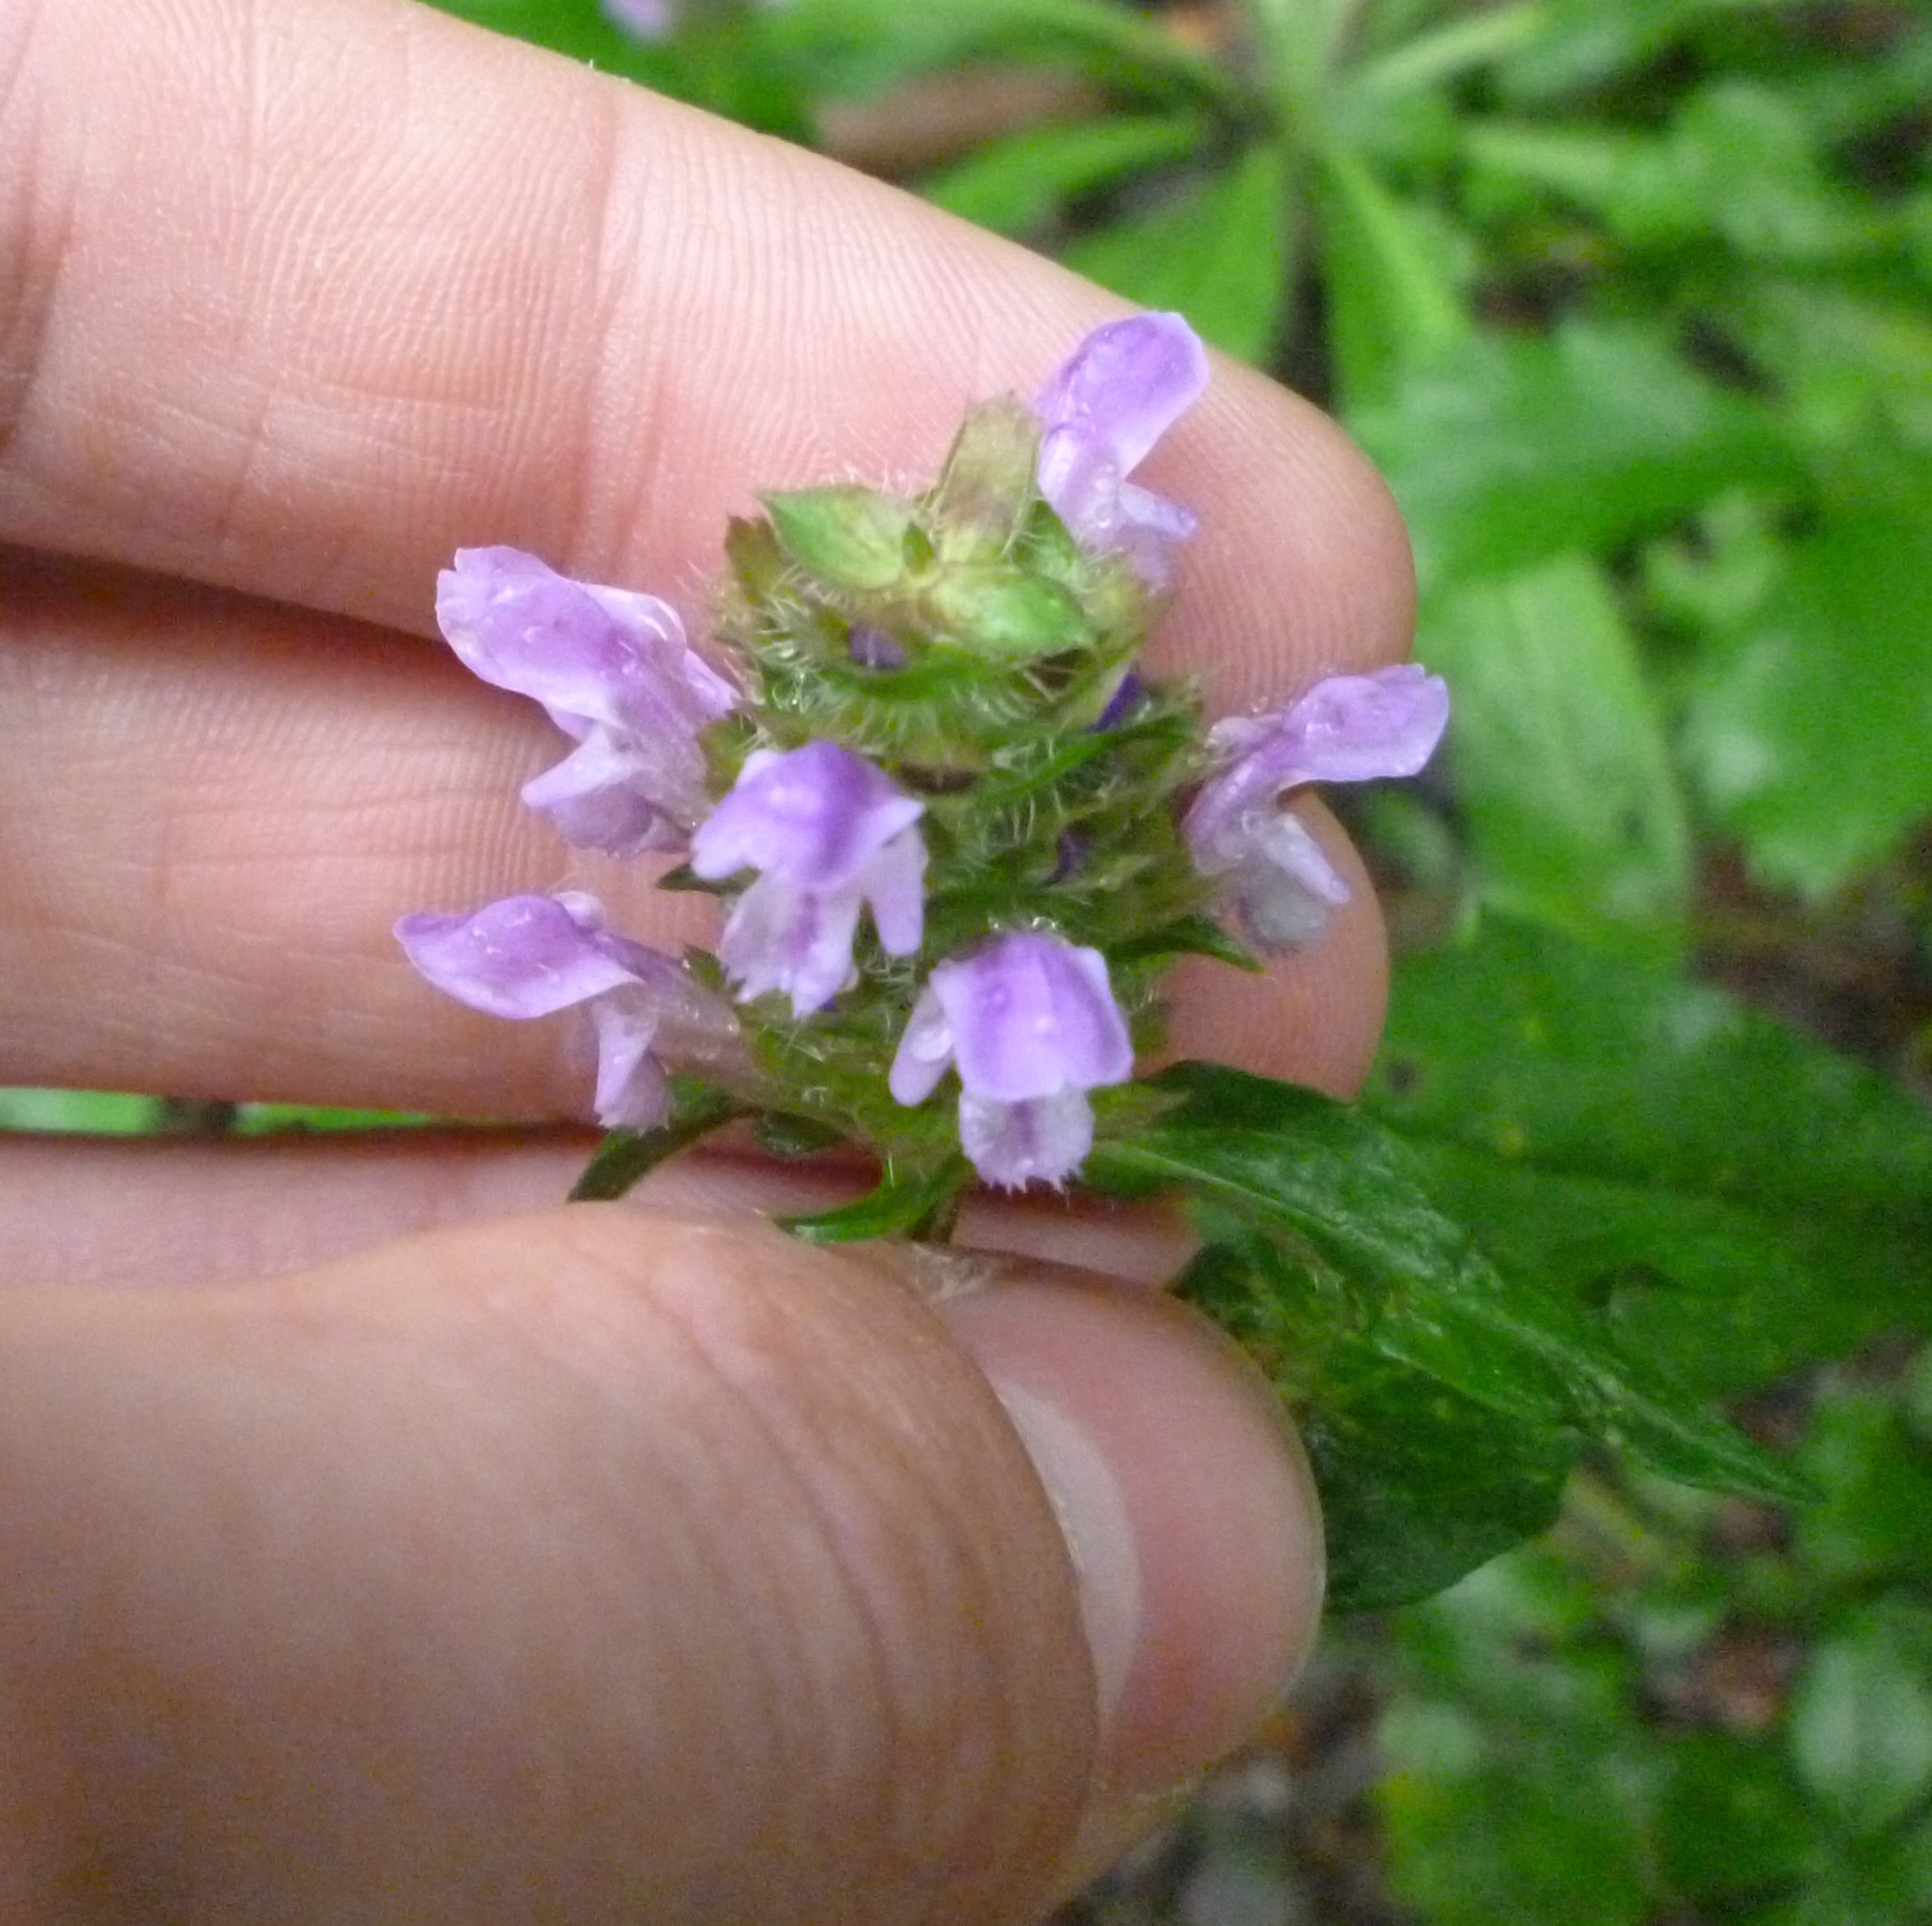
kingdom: Plantae
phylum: Tracheophyta
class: Magnoliopsida
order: Lamiales
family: Lamiaceae
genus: Prunella
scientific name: Prunella vulgaris
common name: Heal-all
